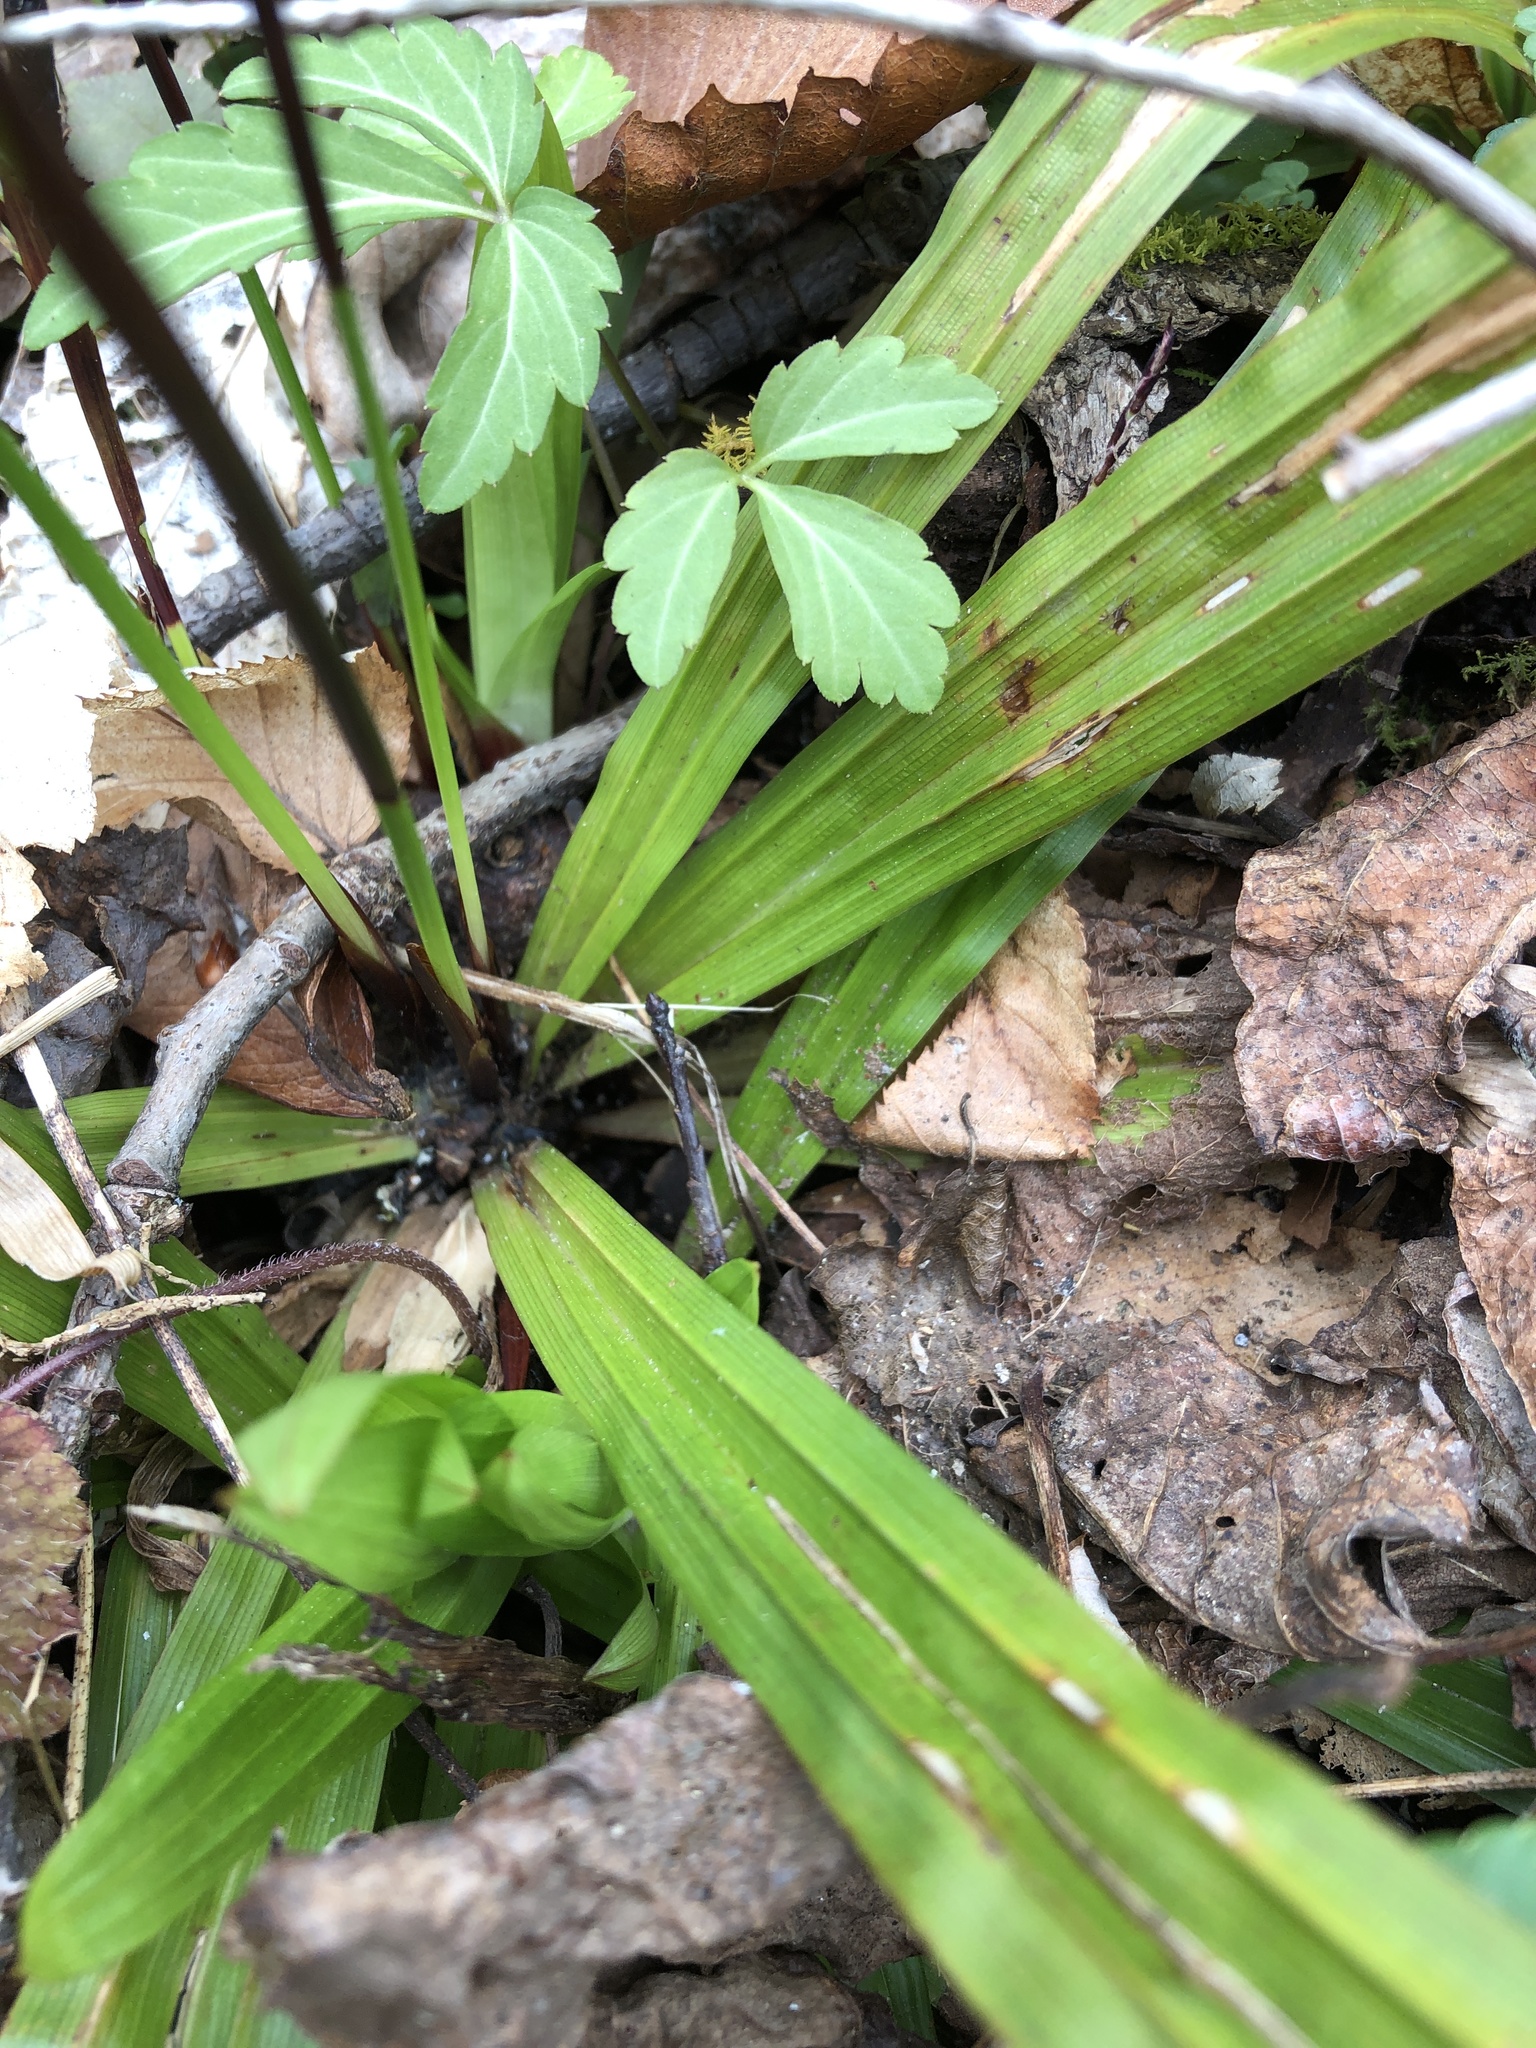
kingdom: Plantae
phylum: Tracheophyta
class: Liliopsida
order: Poales
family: Cyperaceae
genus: Carex
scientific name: Carex plantaginea
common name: Plantain-leaved sedge
